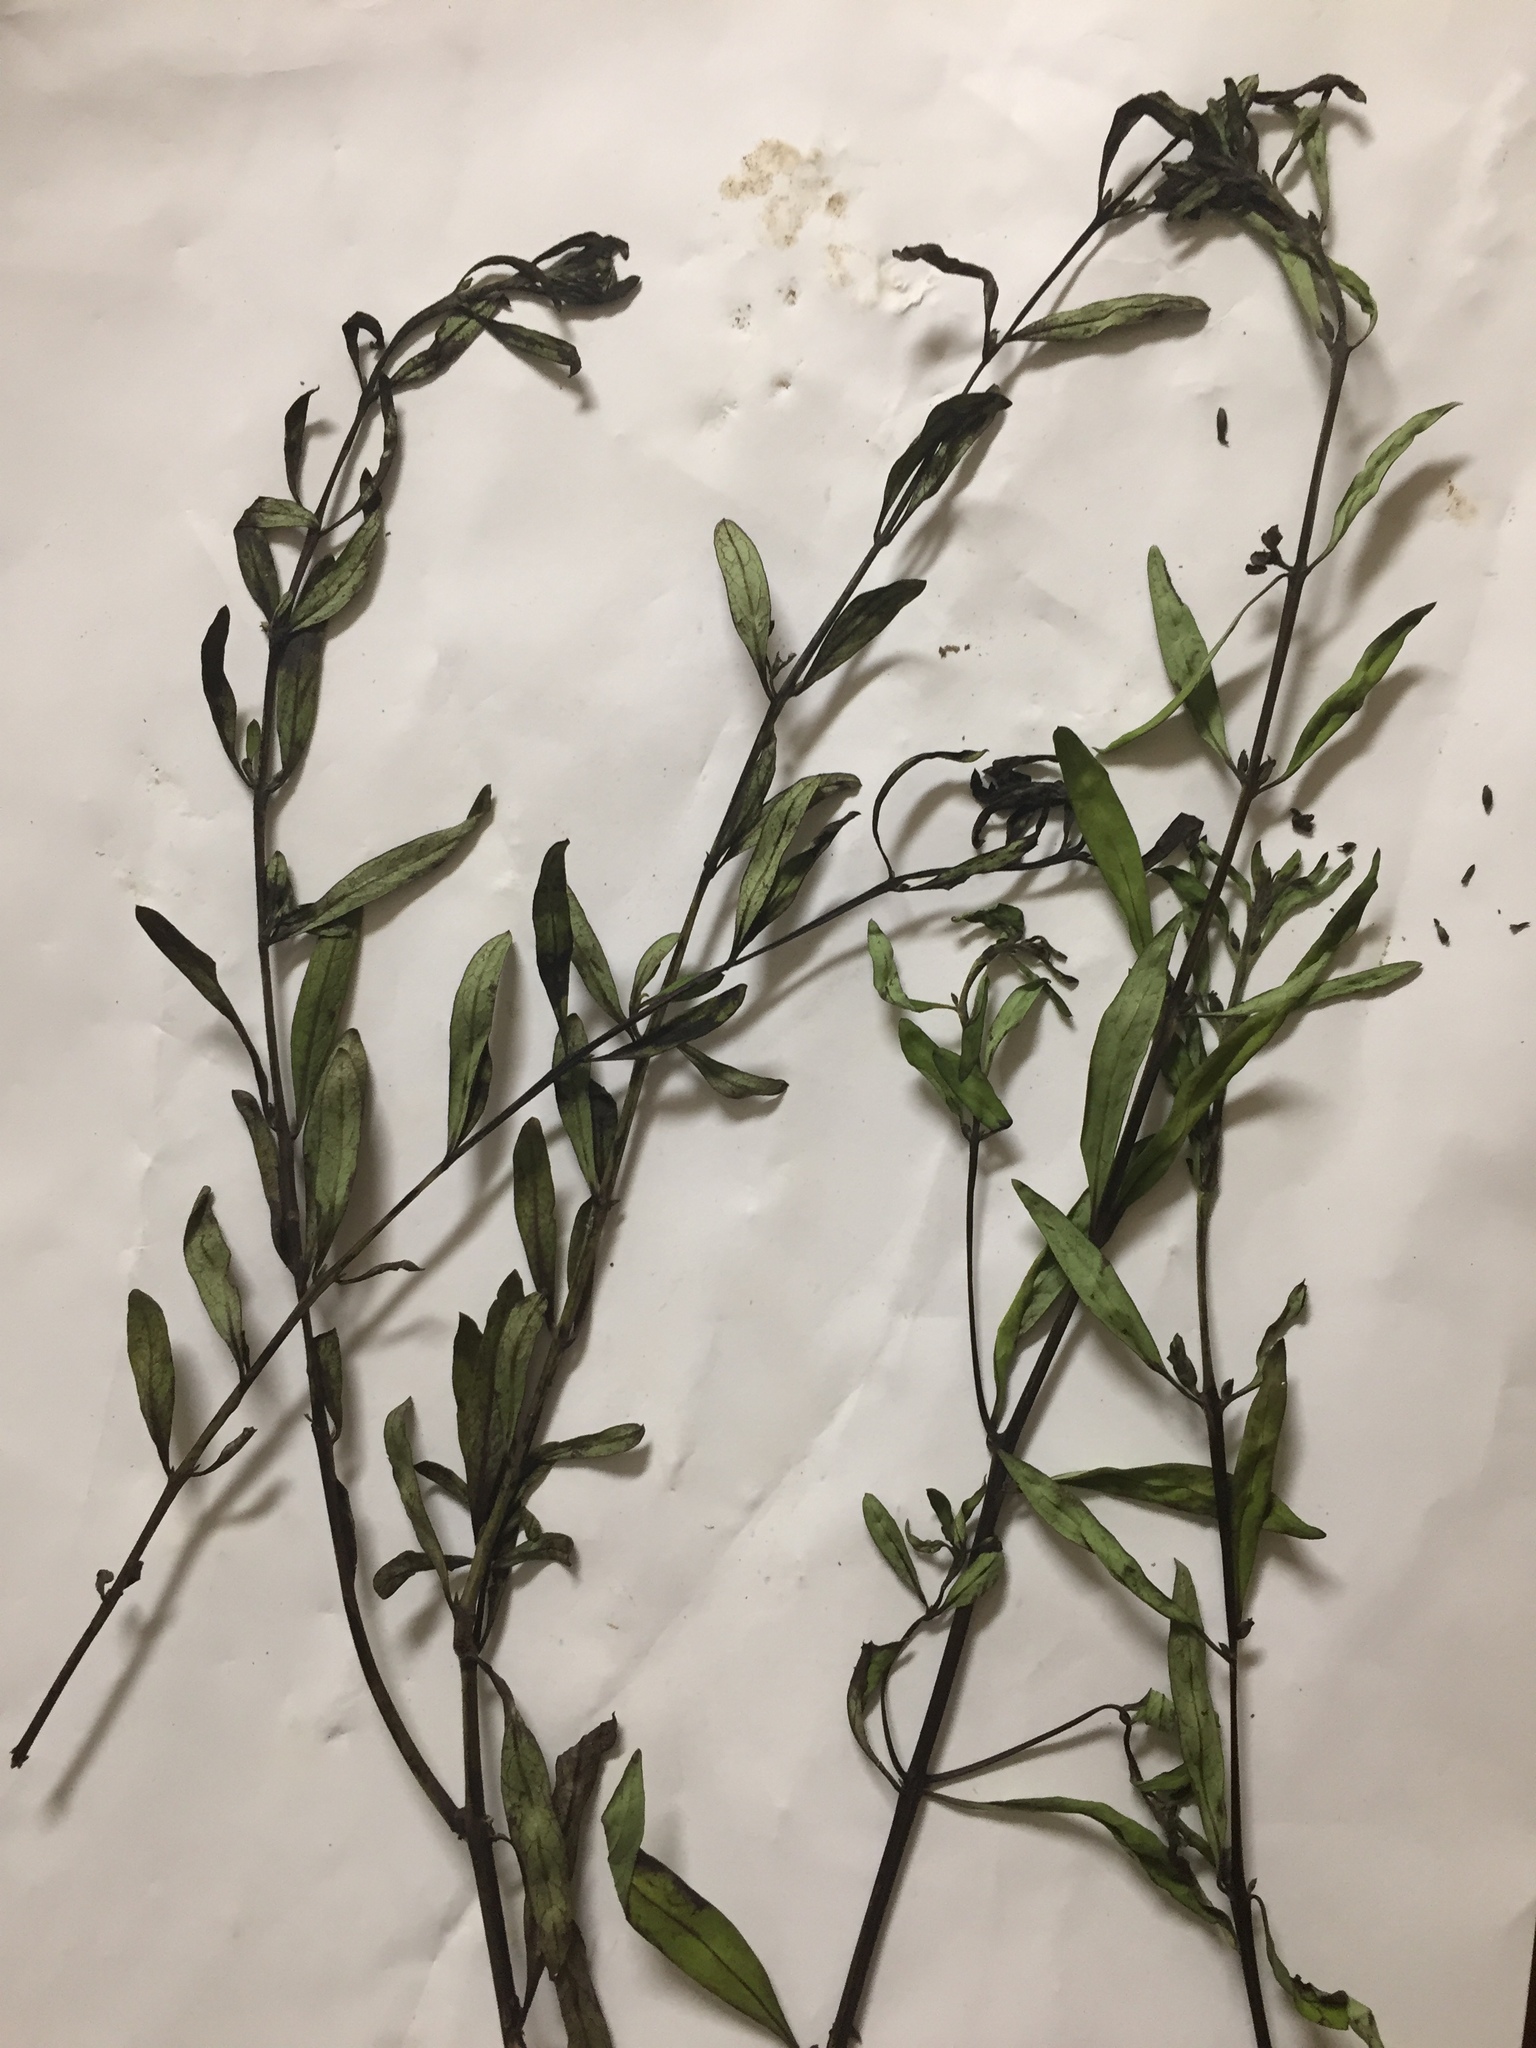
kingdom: Plantae
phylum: Tracheophyta
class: Magnoliopsida
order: Lamiales
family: Orobanchaceae
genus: Aureolaria
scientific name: Aureolaria grandiflora
